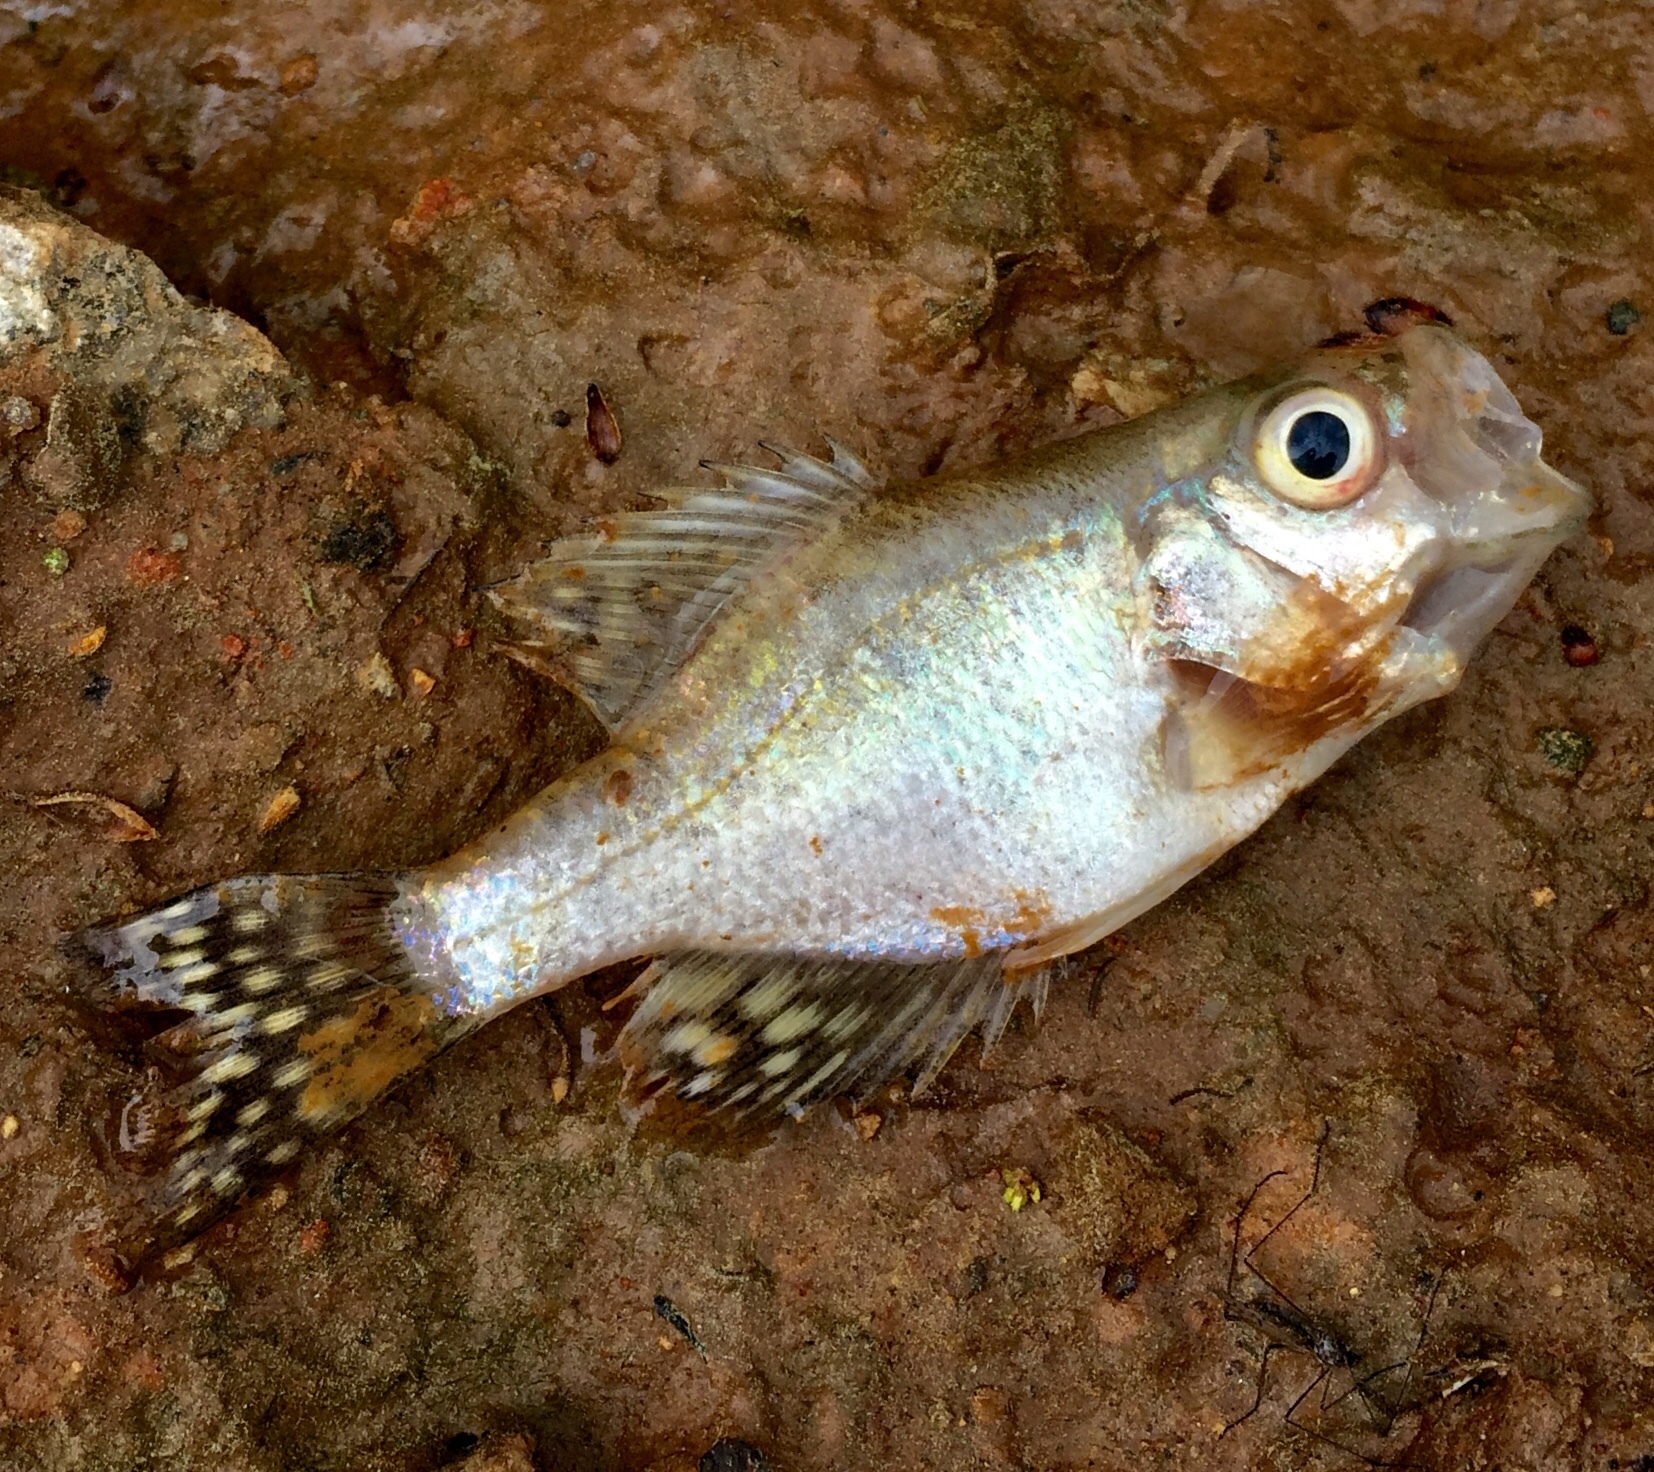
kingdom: Animalia
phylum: Chordata
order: Perciformes
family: Centrarchidae
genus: Pomoxis
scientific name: Pomoxis nigromaculatus
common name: Black crappie
